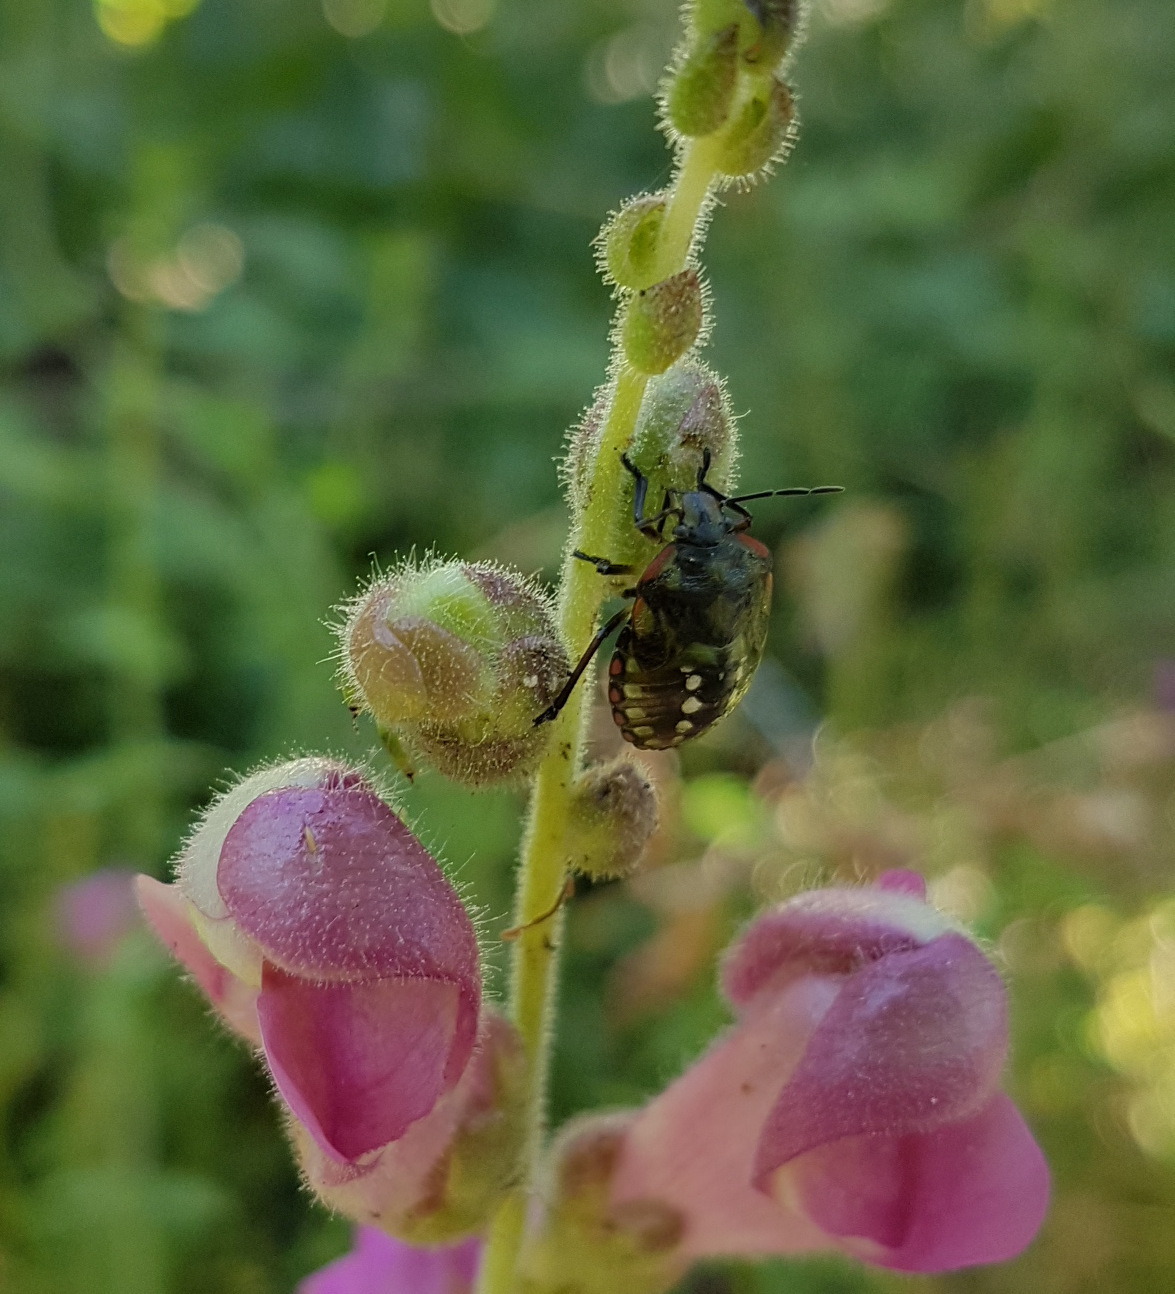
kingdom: Animalia
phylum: Arthropoda
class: Insecta
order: Hemiptera
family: Pentatomidae
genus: Nezara
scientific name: Nezara viridula
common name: Southern green stink bug
